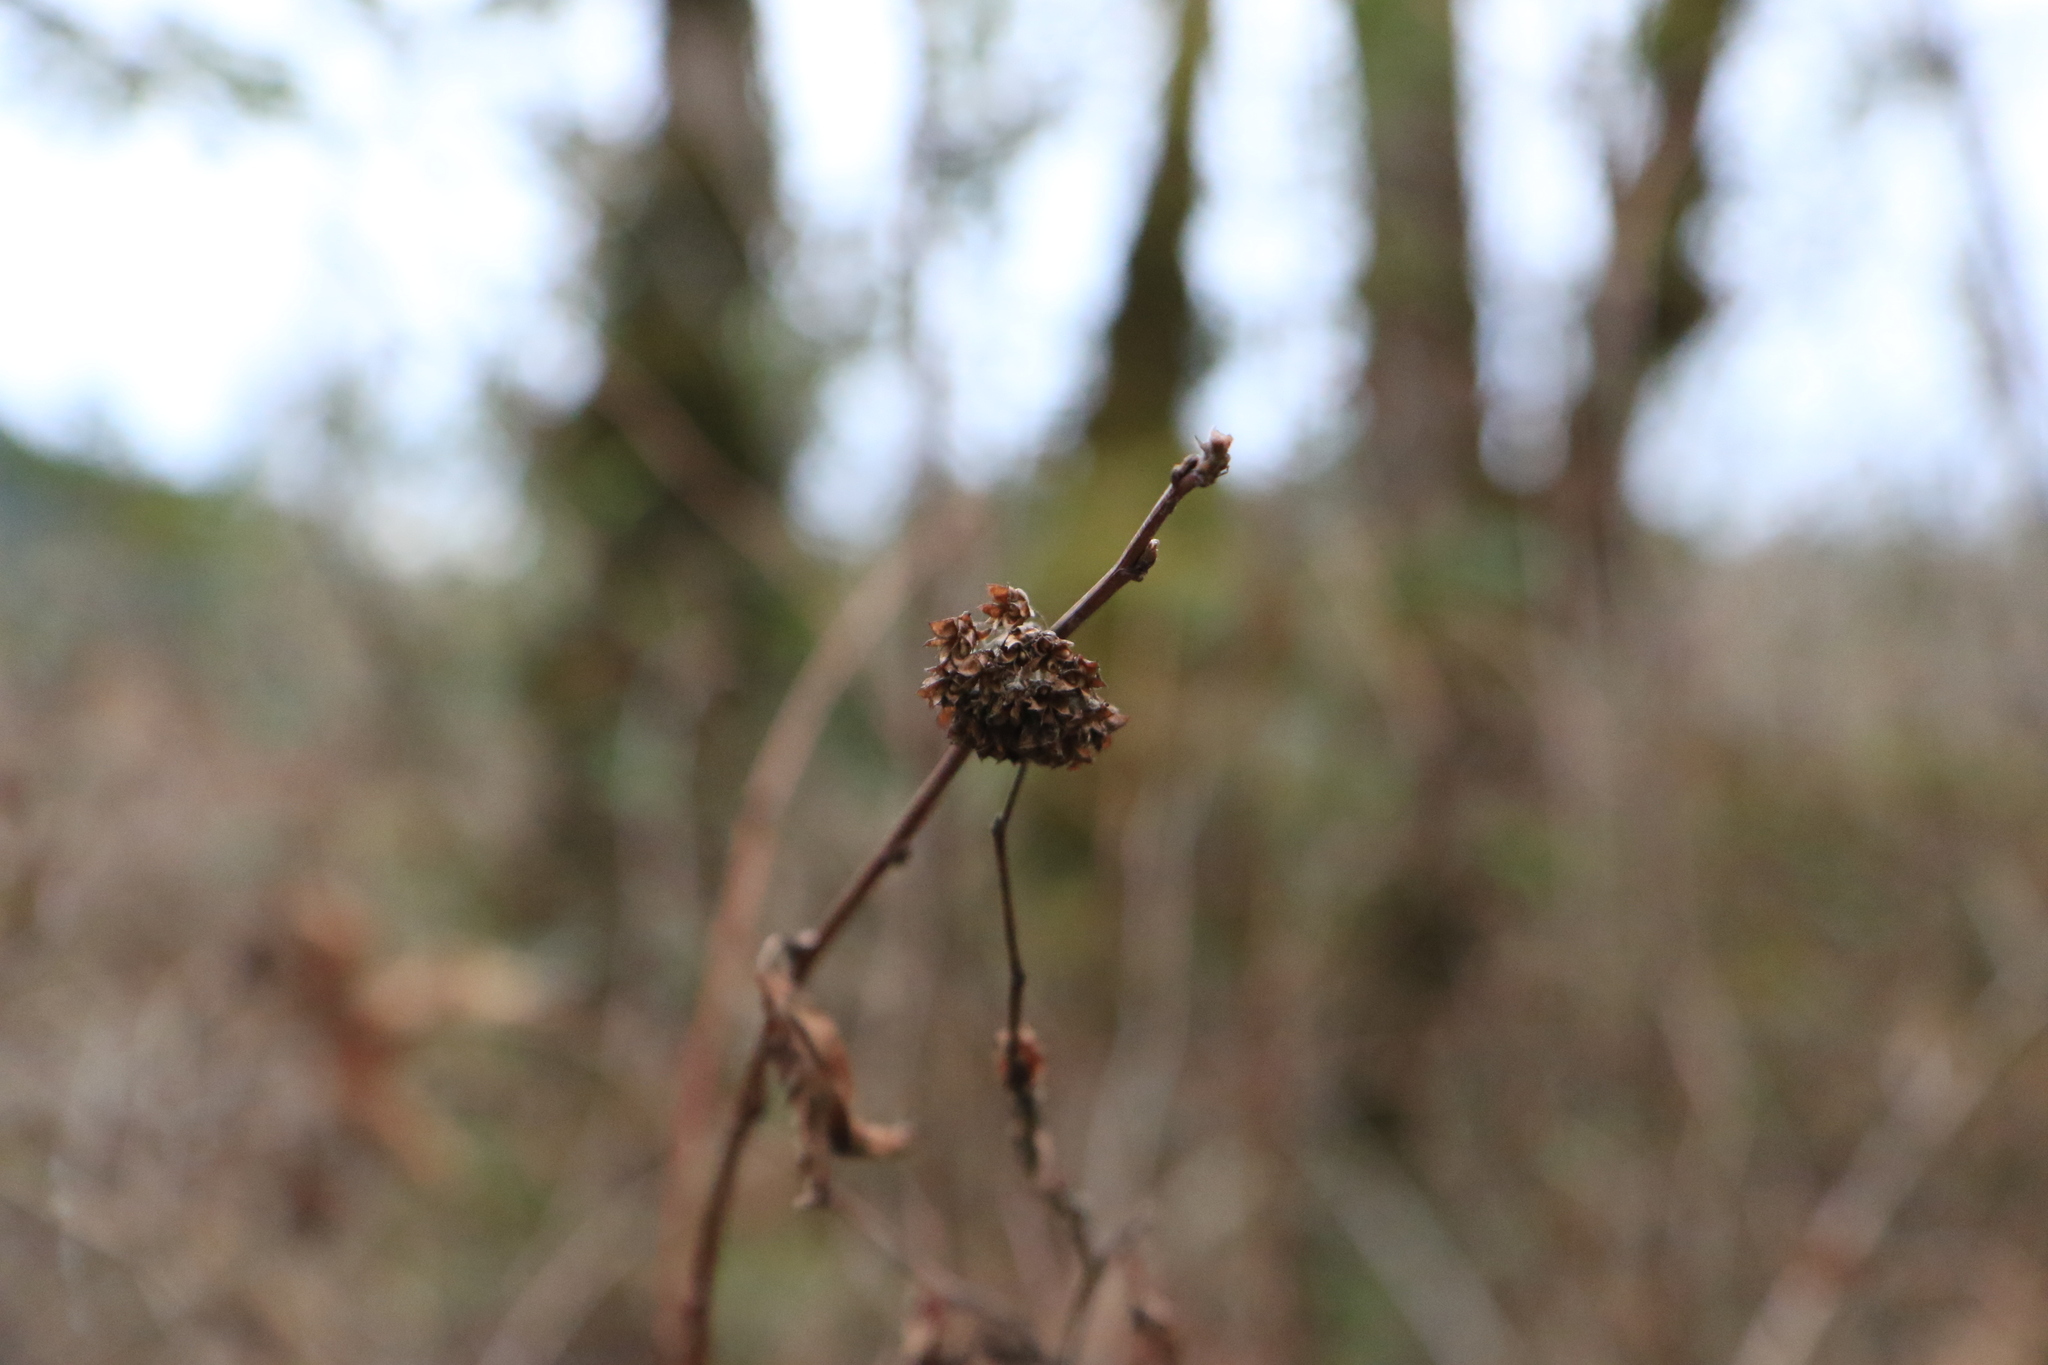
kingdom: Plantae
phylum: Tracheophyta
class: Magnoliopsida
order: Rosales
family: Rosaceae
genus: Physocarpus
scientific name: Physocarpus capitatus
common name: Pacific ninebark
